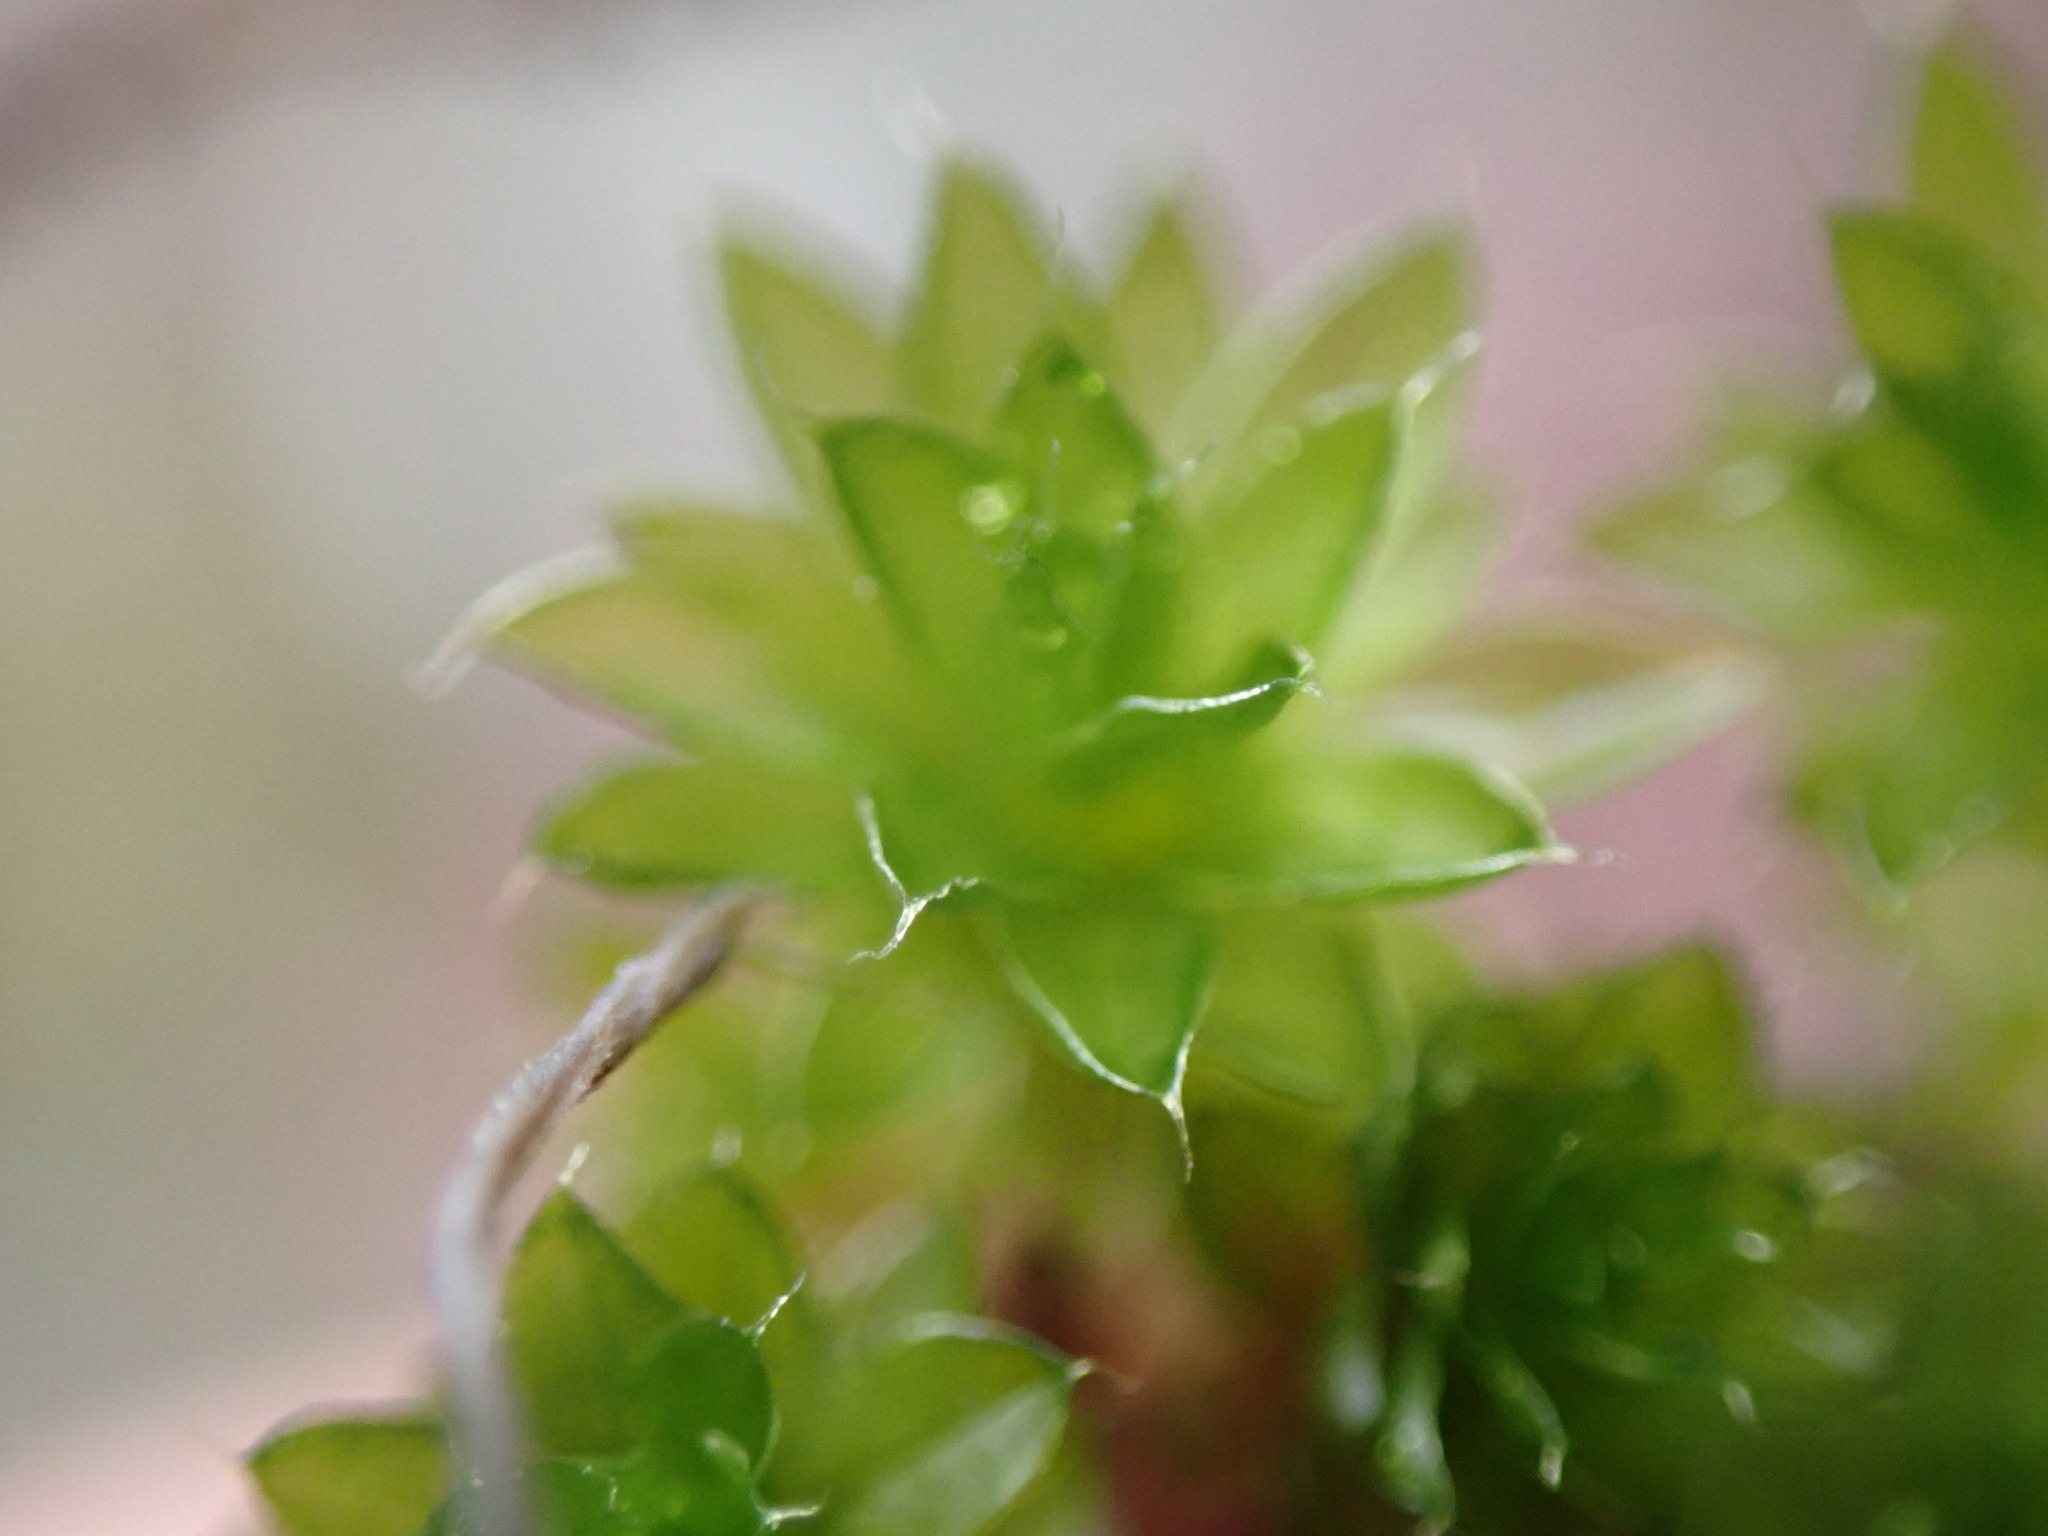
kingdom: Plantae
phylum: Bryophyta
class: Bryopsida
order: Bryales
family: Bryaceae
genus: Rosulabryum
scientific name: Rosulabryum canariense
